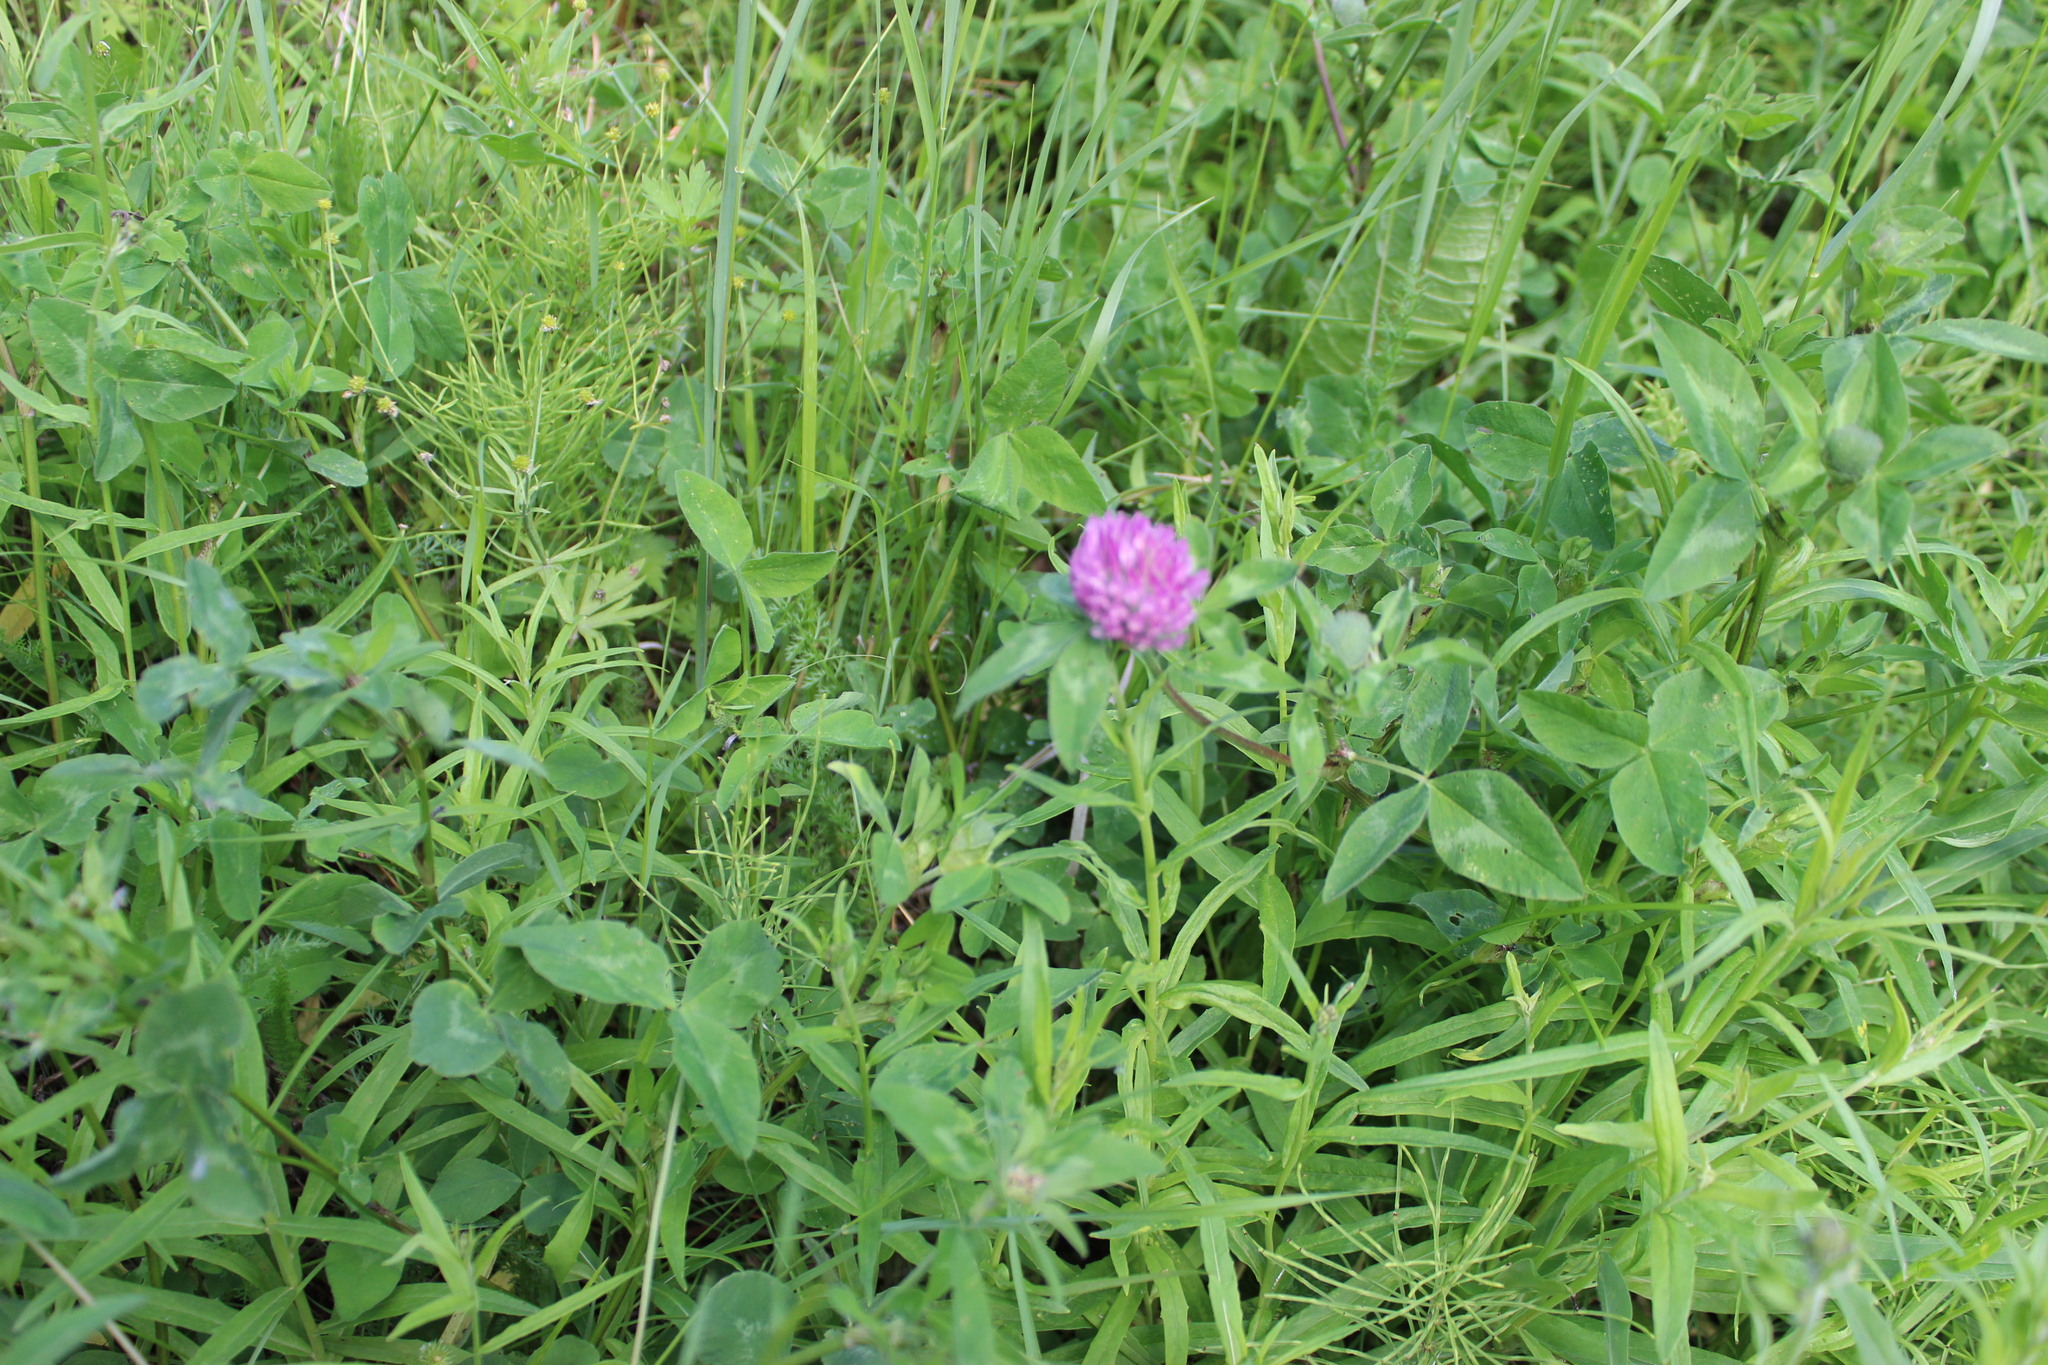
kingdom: Plantae
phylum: Tracheophyta
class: Magnoliopsida
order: Fabales
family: Fabaceae
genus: Trifolium
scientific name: Trifolium pratense
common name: Red clover
